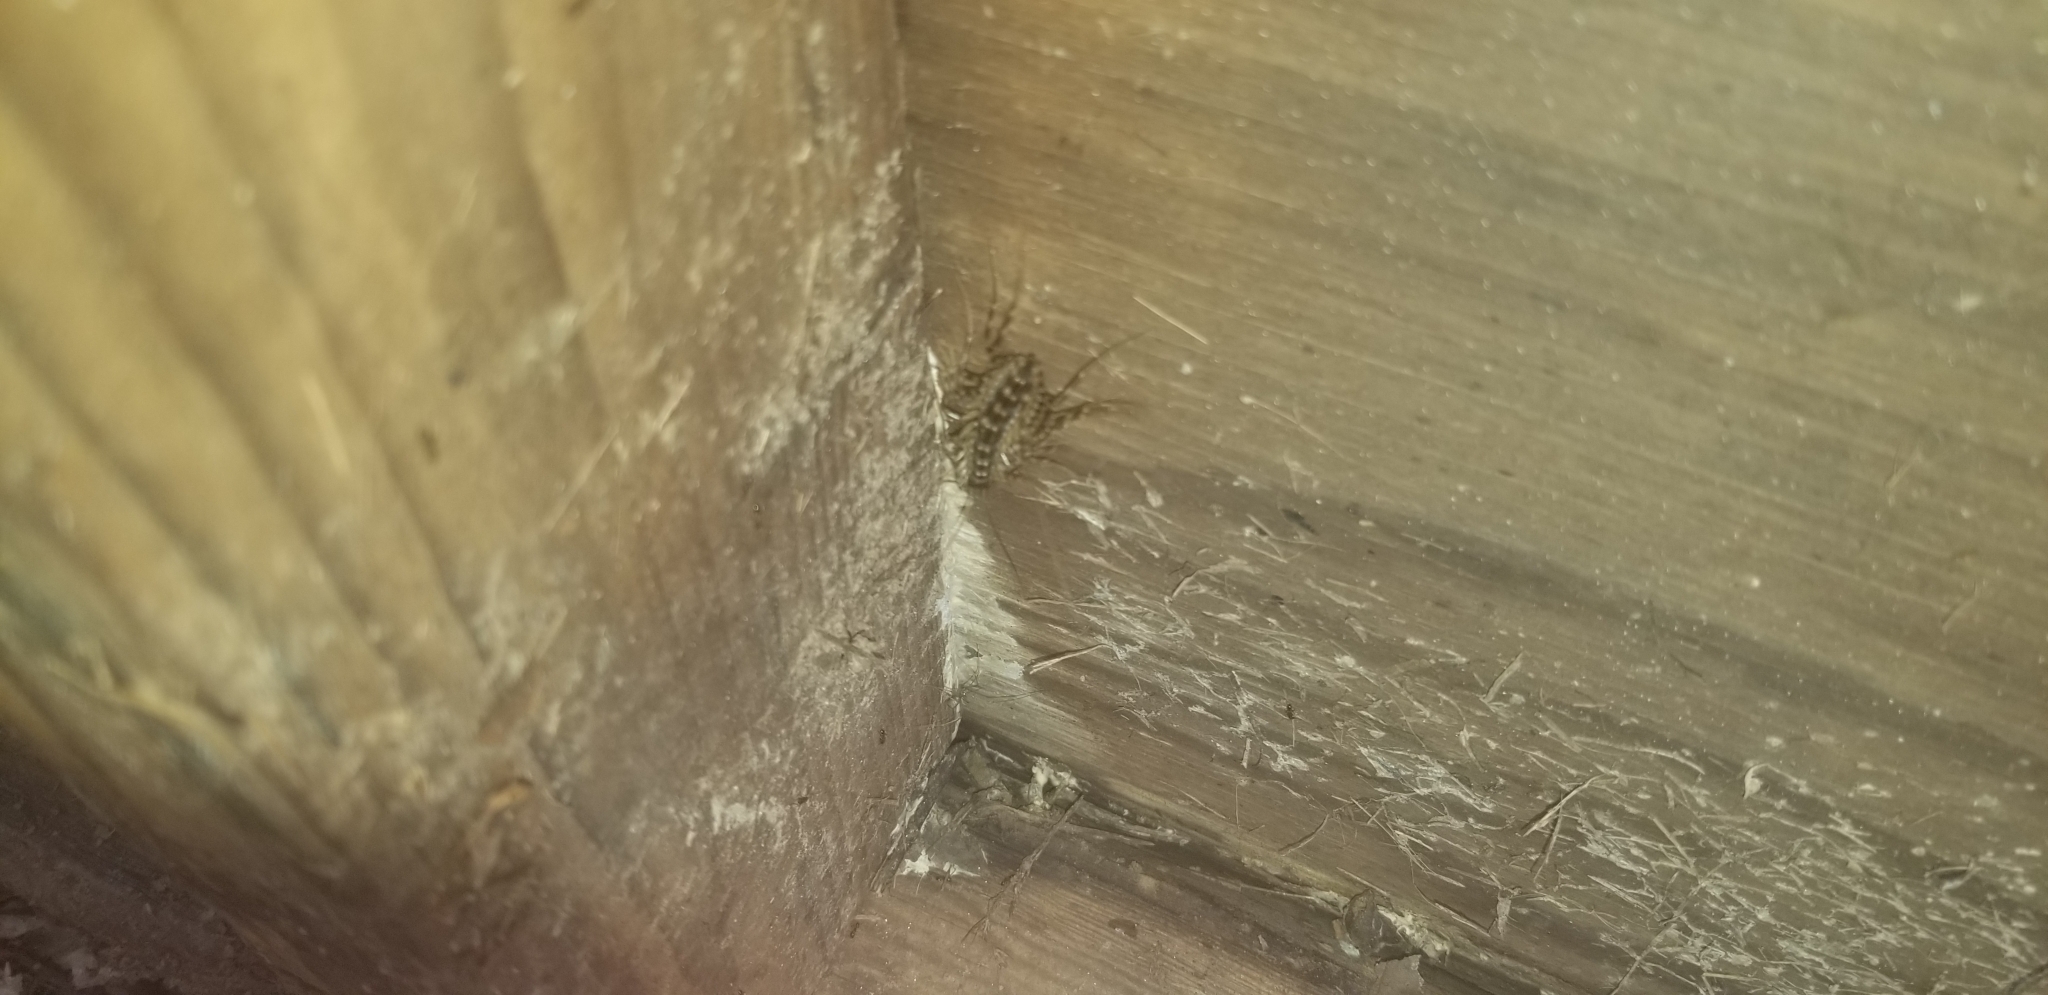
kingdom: Animalia
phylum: Arthropoda
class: Chilopoda
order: Scutigeromorpha
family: Scutigeridae
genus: Scutigera
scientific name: Scutigera coleoptrata
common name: House centipede
